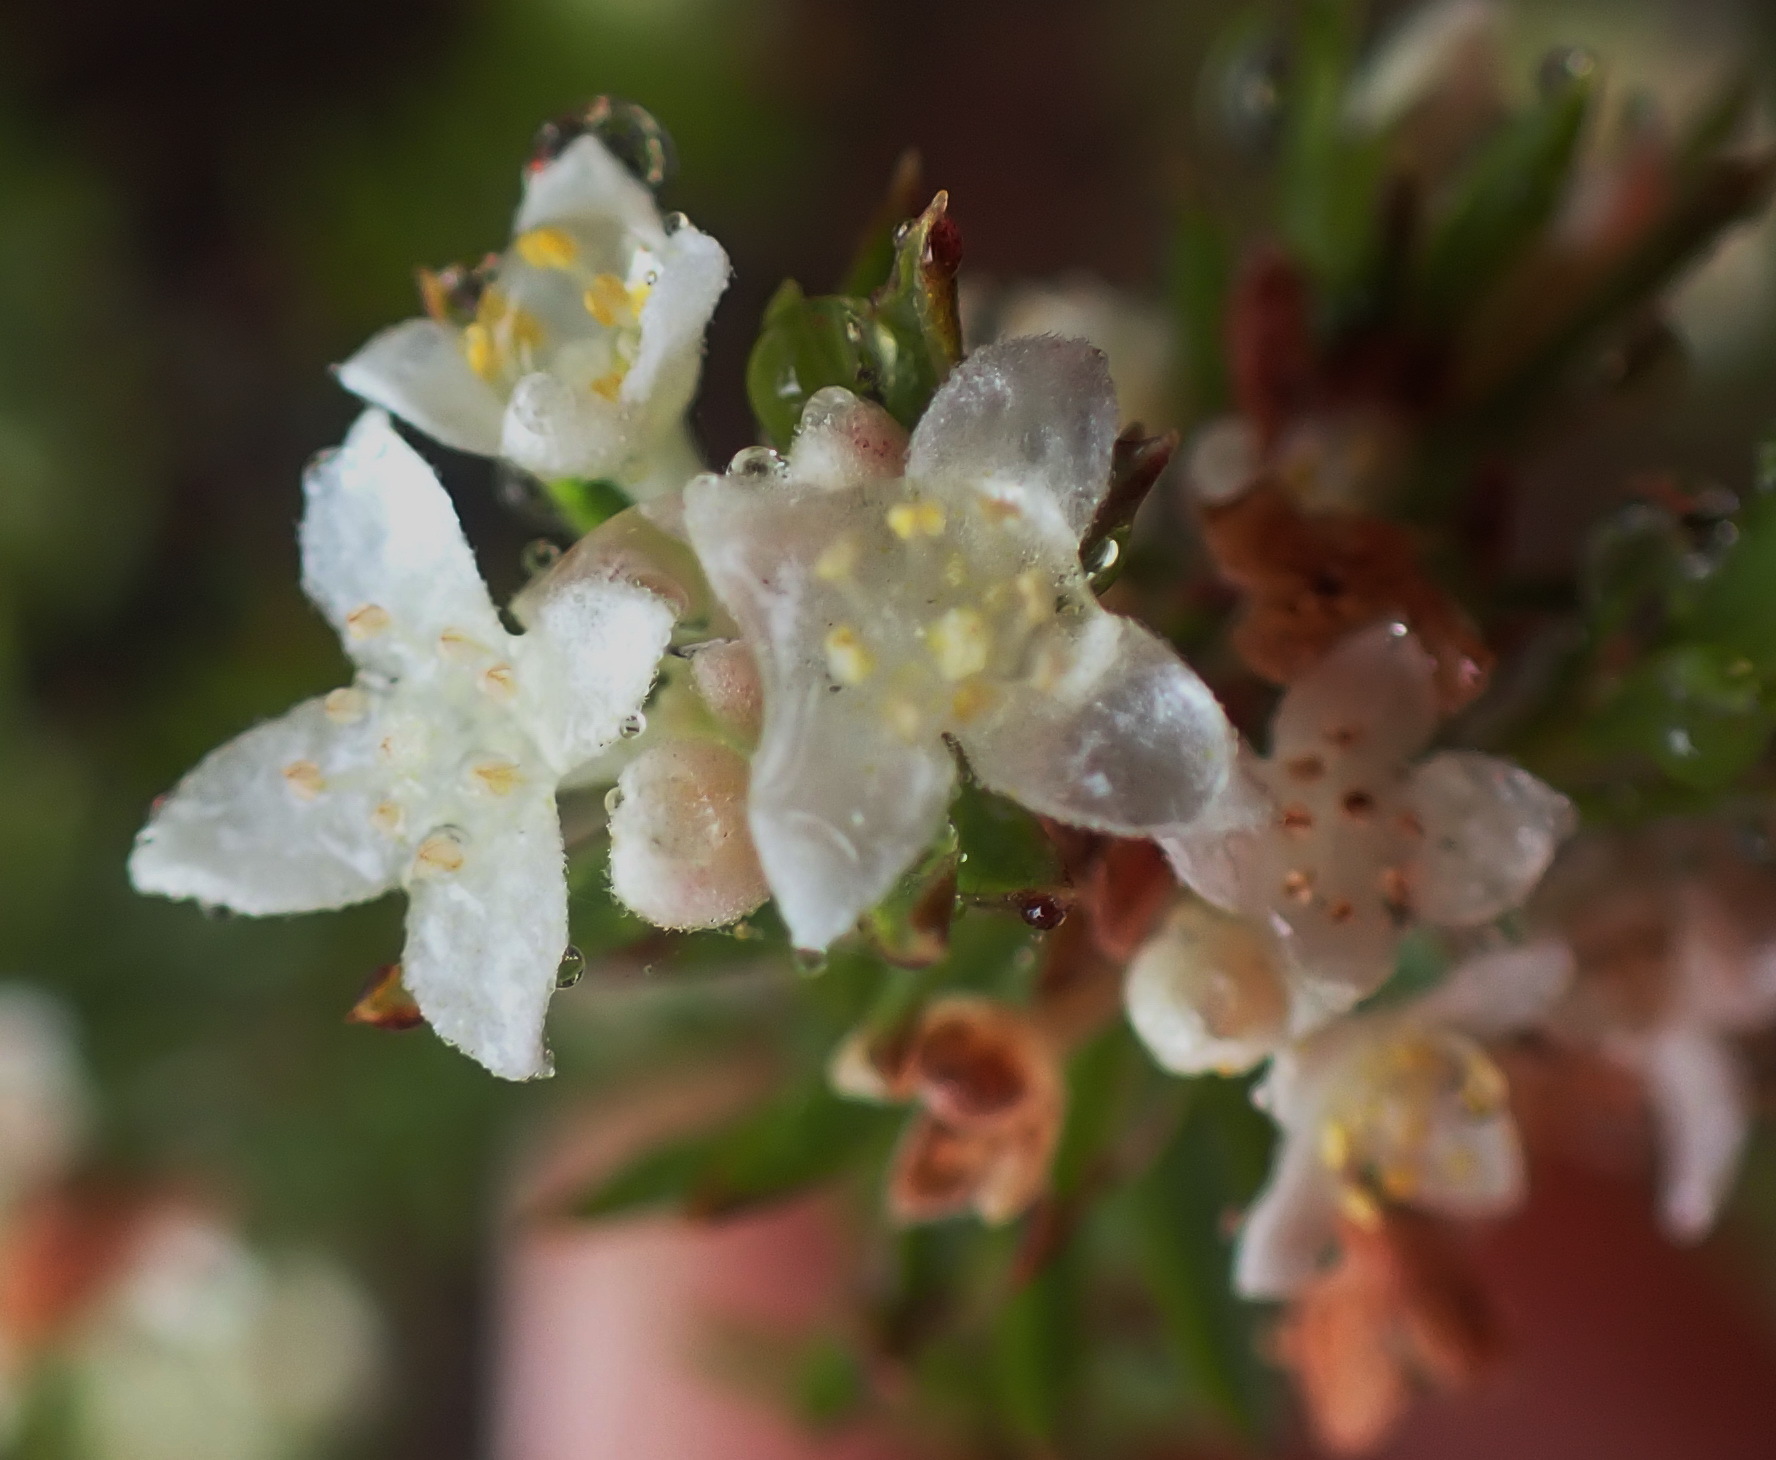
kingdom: Plantae
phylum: Tracheophyta
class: Magnoliopsida
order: Malvales
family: Thymelaeaceae
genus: Lachnaea
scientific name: Lachnaea diosmoides
